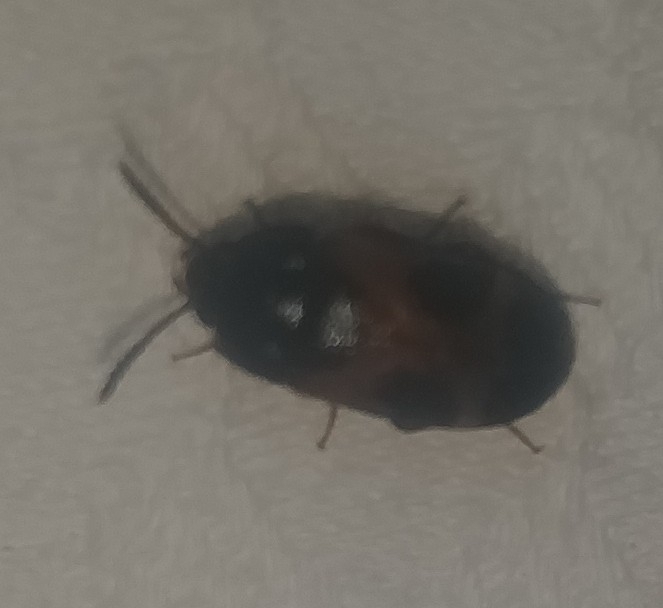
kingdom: Animalia
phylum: Arthropoda
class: Insecta
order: Coleoptera
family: Mycetophagidae
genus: Mycetophagus
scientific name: Mycetophagus punctatus
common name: Hairy fungus beetle
